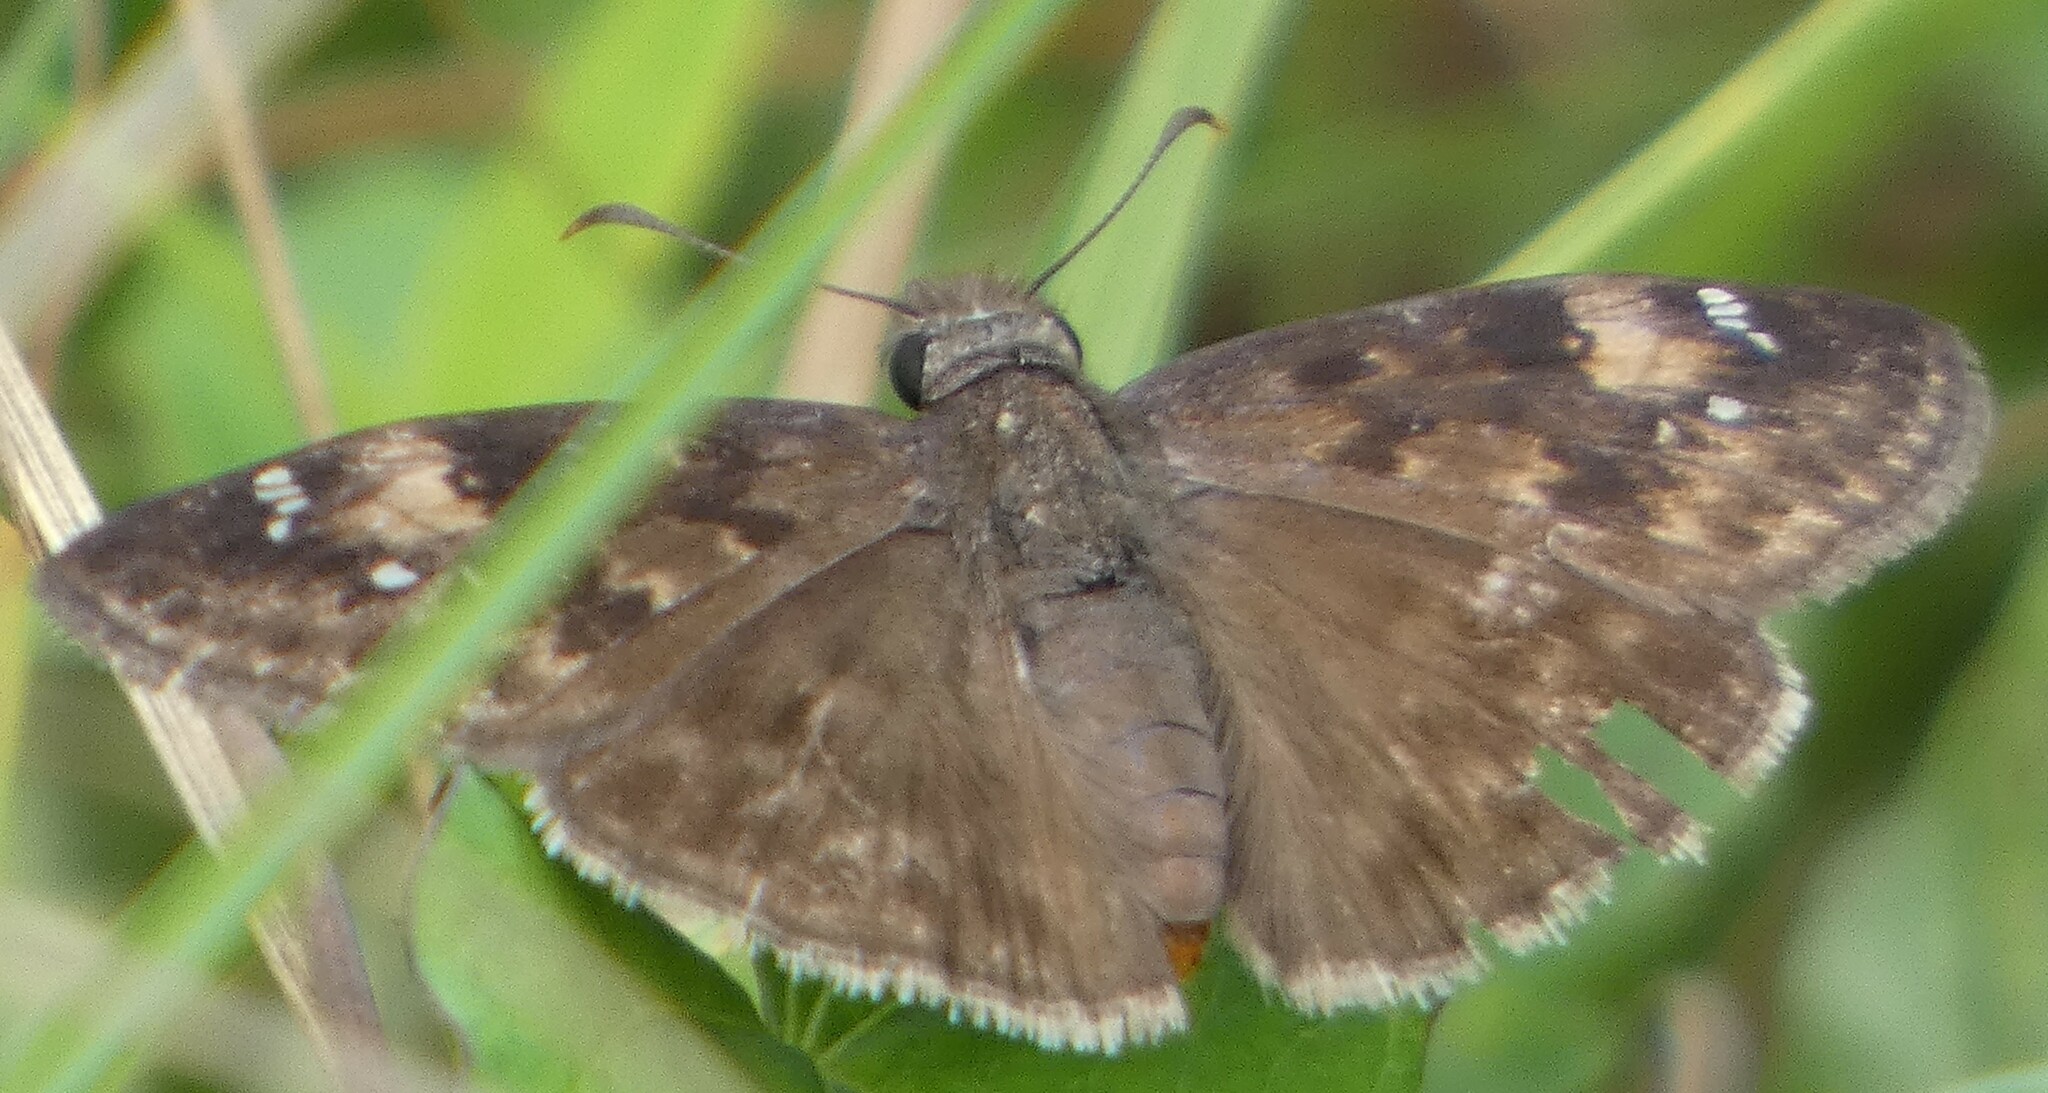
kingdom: Animalia
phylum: Arthropoda
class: Insecta
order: Lepidoptera
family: Hesperiidae
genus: Erynnis
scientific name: Erynnis horatius
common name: Horace's duskywing
